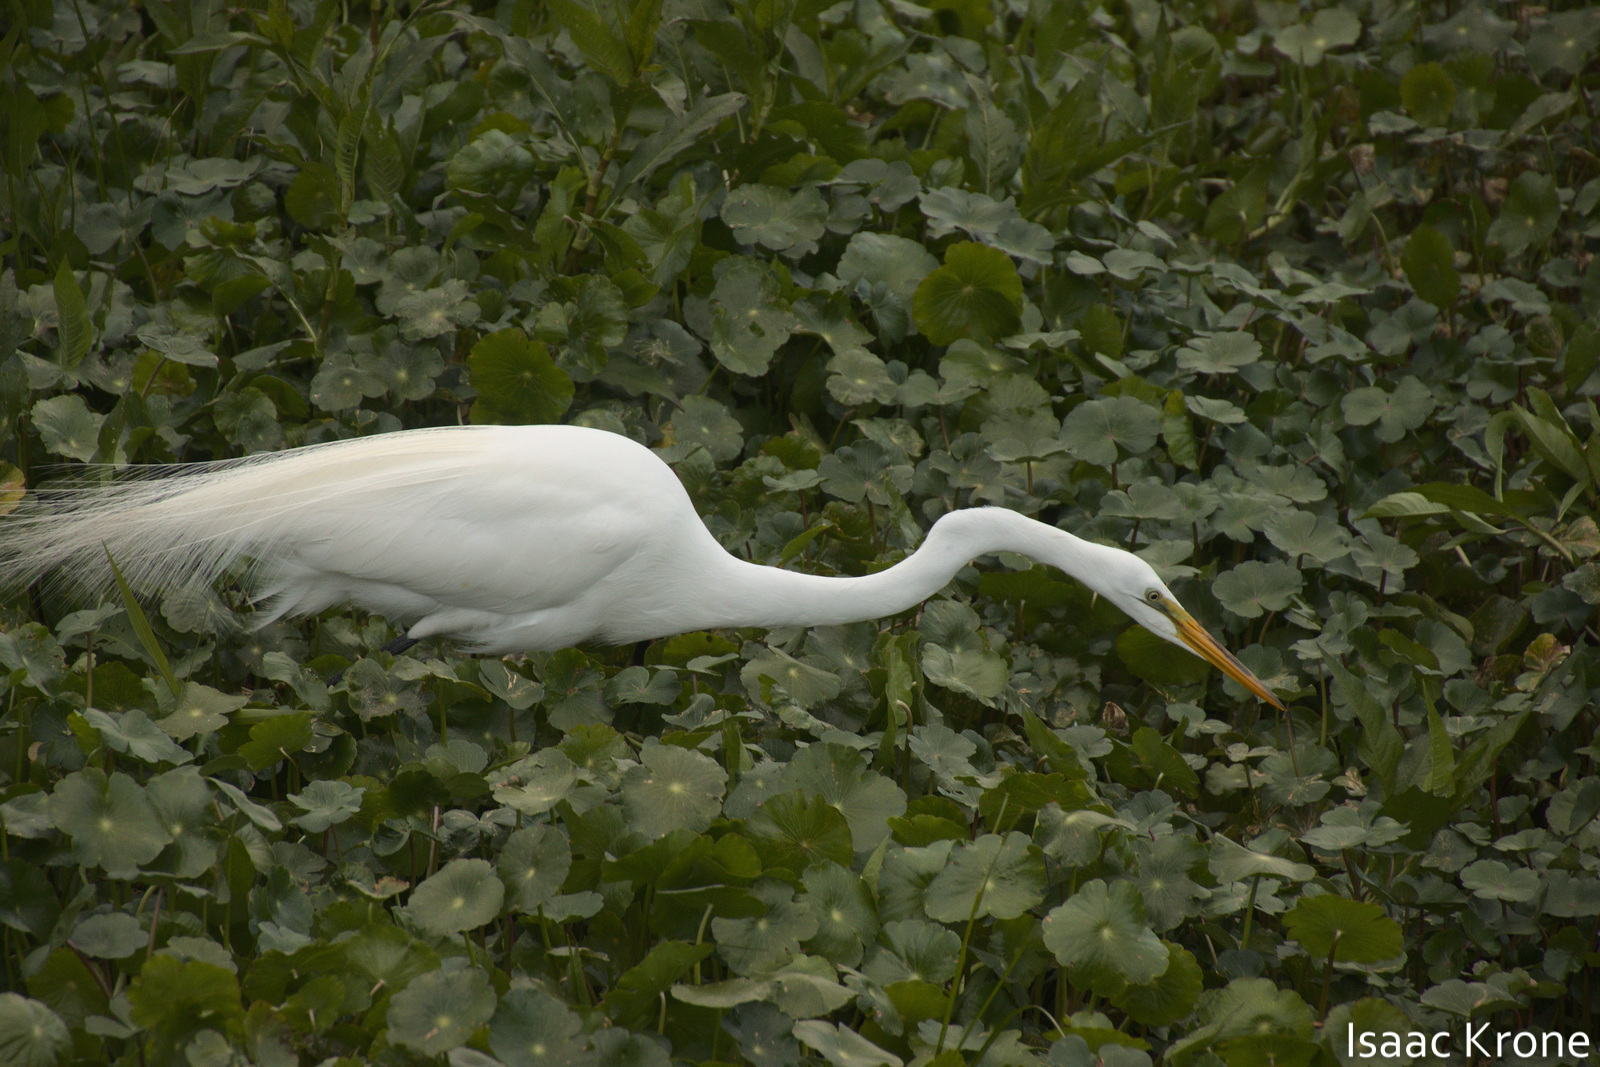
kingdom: Animalia
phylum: Chordata
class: Aves
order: Pelecaniformes
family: Ardeidae
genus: Ardea
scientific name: Ardea alba
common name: Great egret
